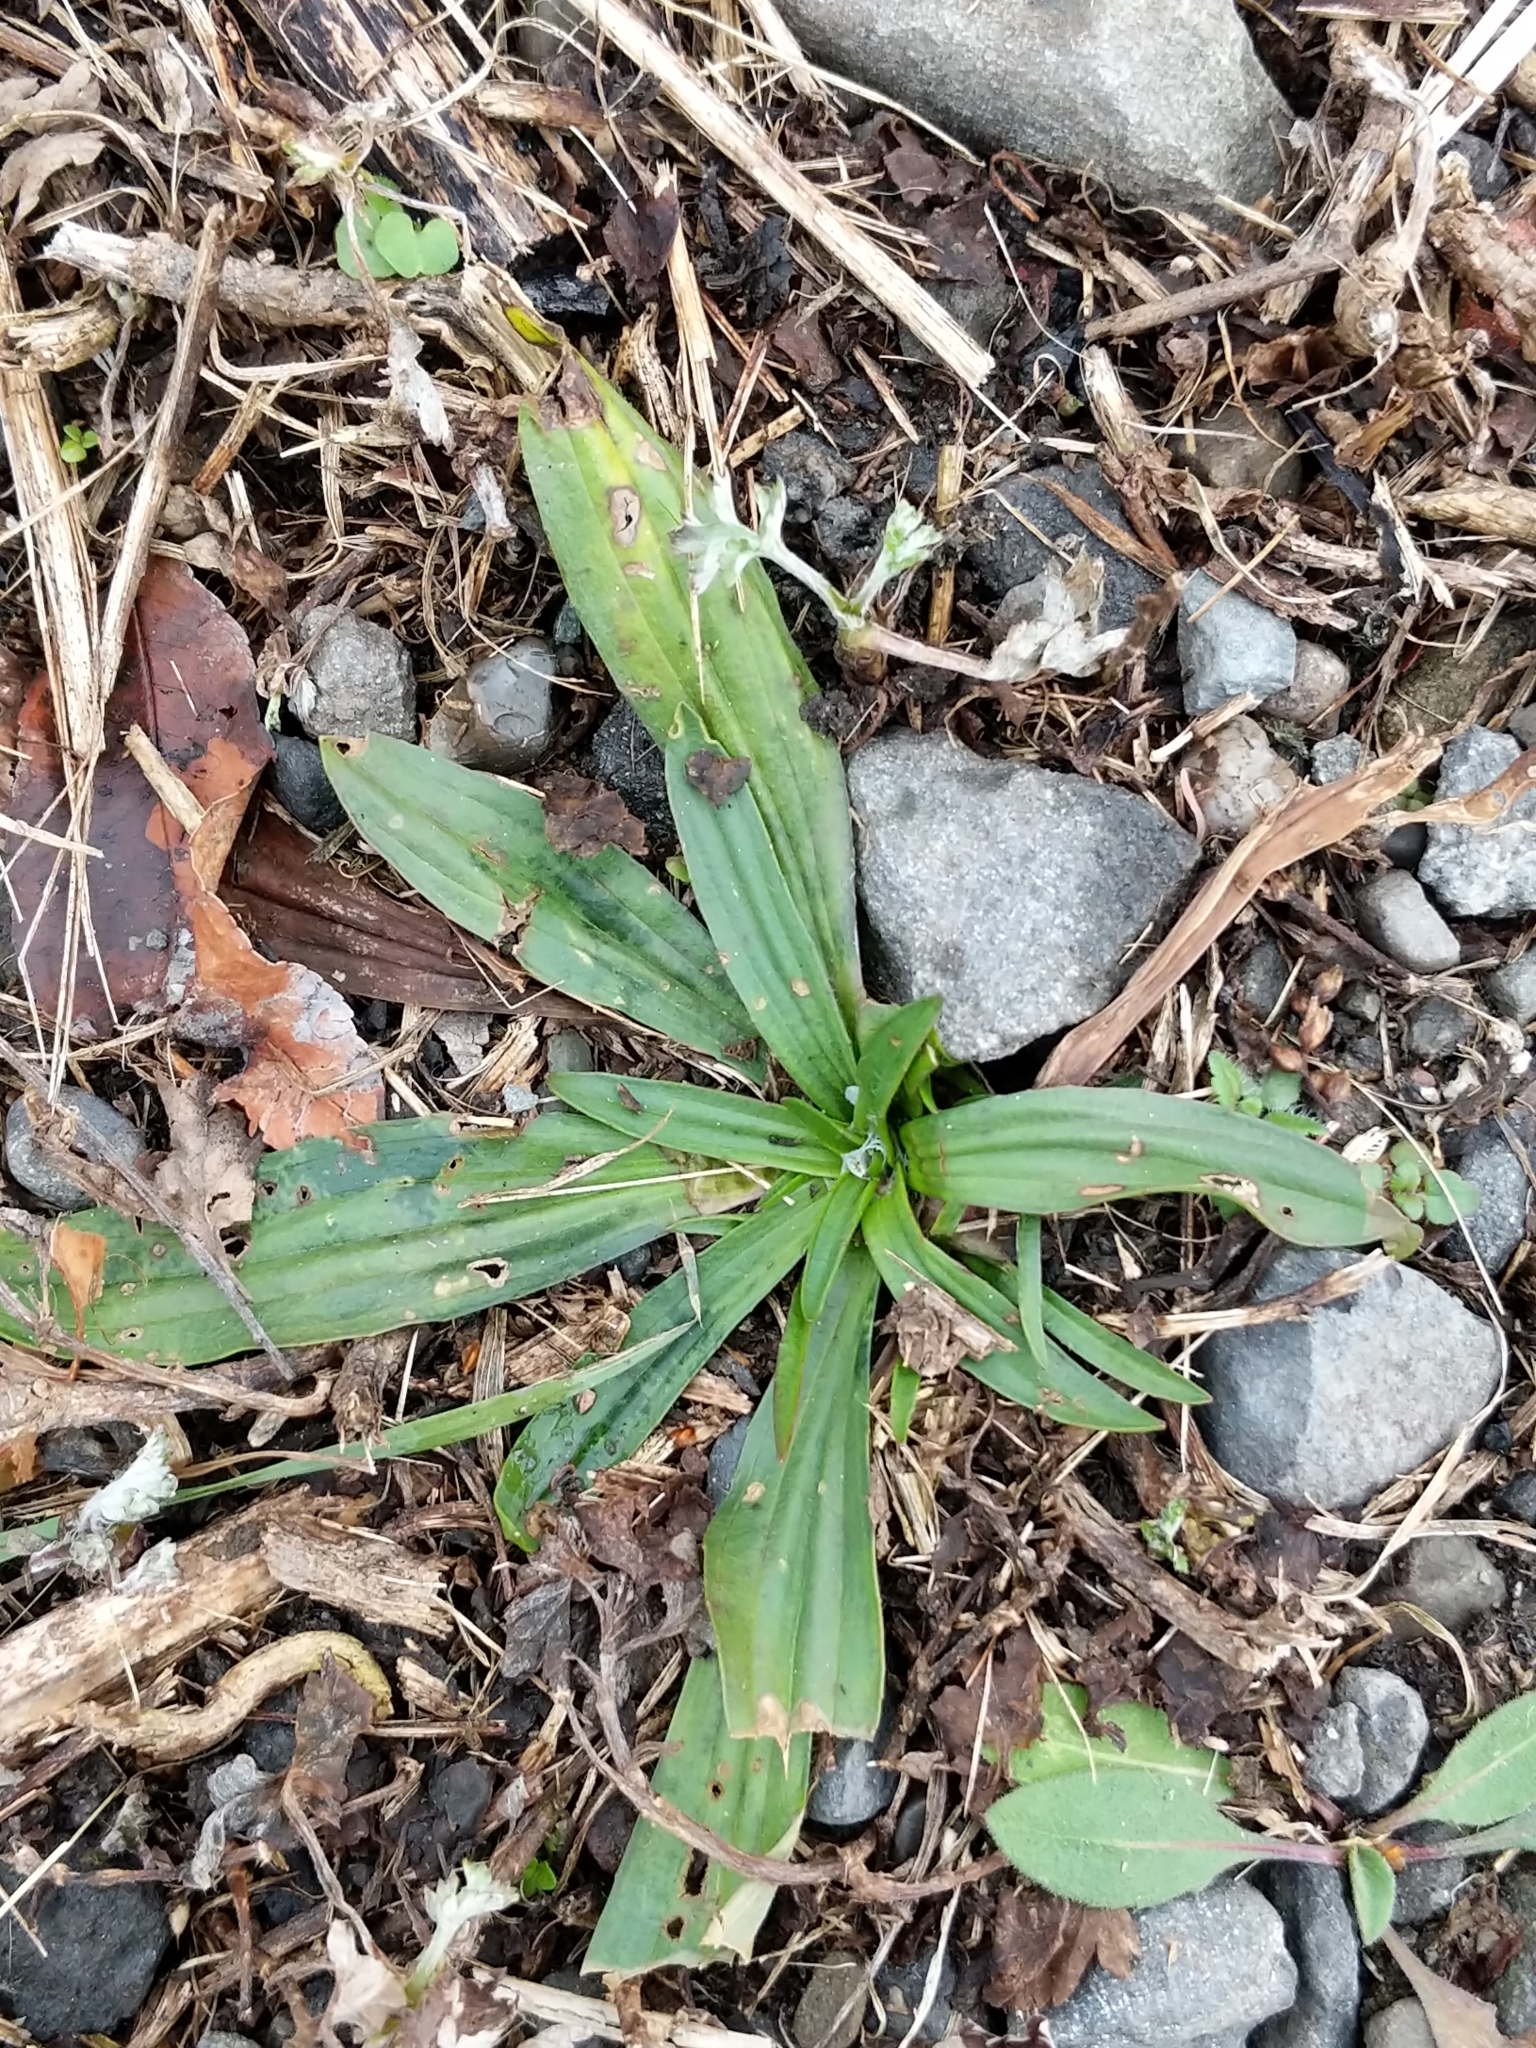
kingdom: Plantae
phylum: Tracheophyta
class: Magnoliopsida
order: Lamiales
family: Plantaginaceae
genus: Plantago
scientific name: Plantago lanceolata
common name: Ribwort plantain
